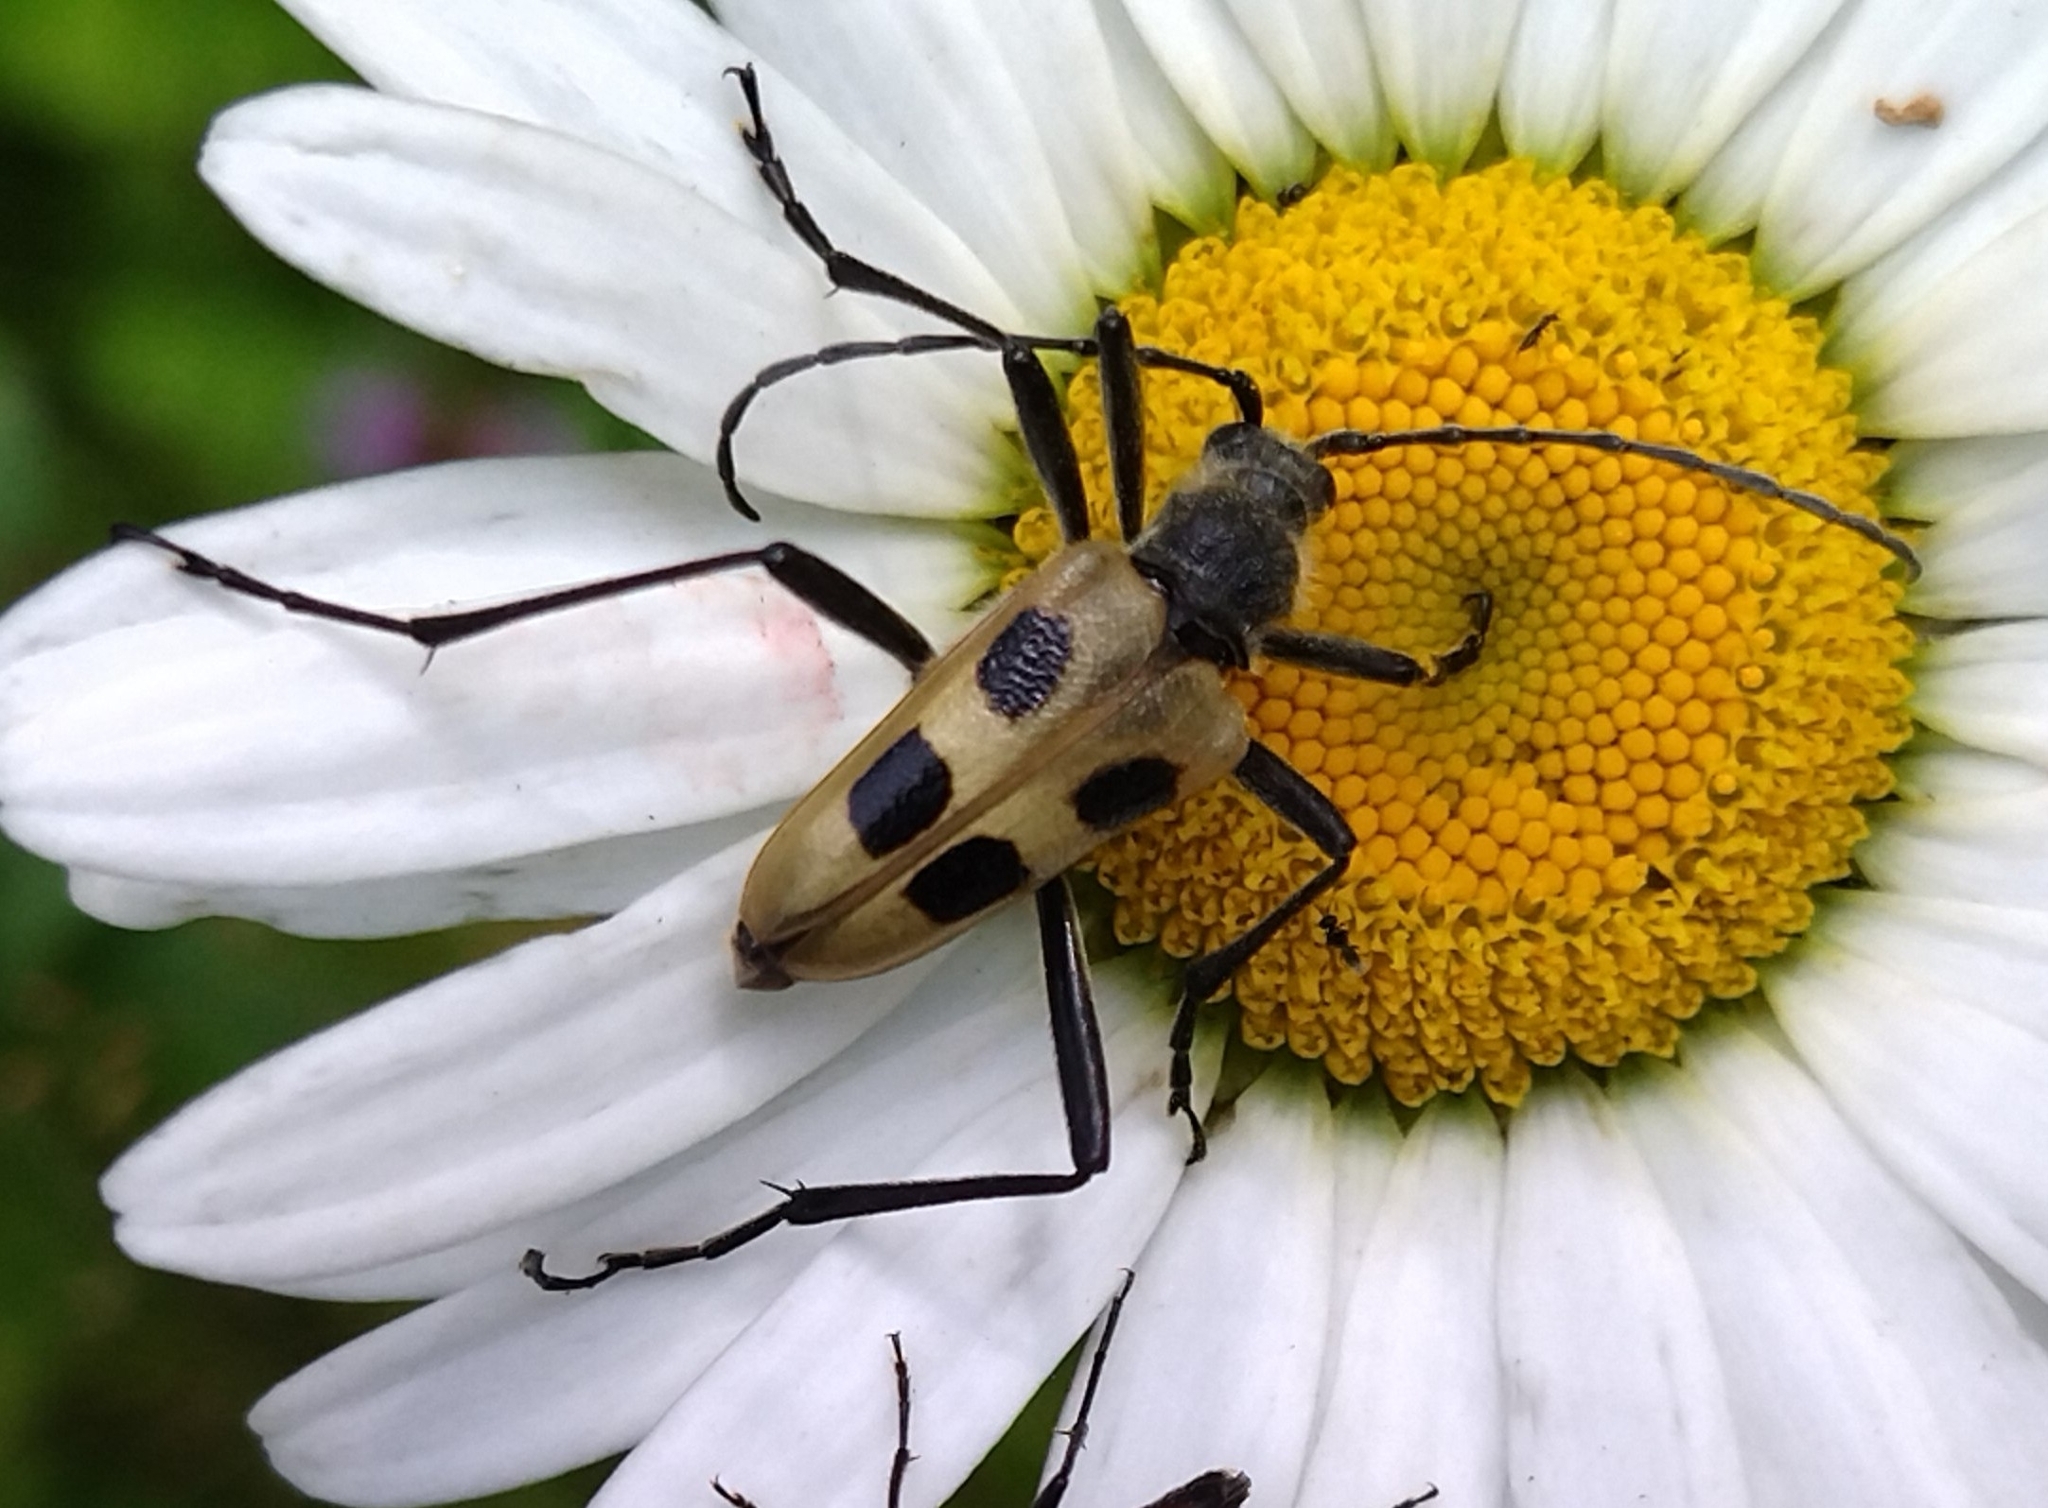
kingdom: Animalia
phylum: Arthropoda
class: Insecta
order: Coleoptera
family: Cerambycidae
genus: Pachyta
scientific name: Pachyta quadrimaculata
